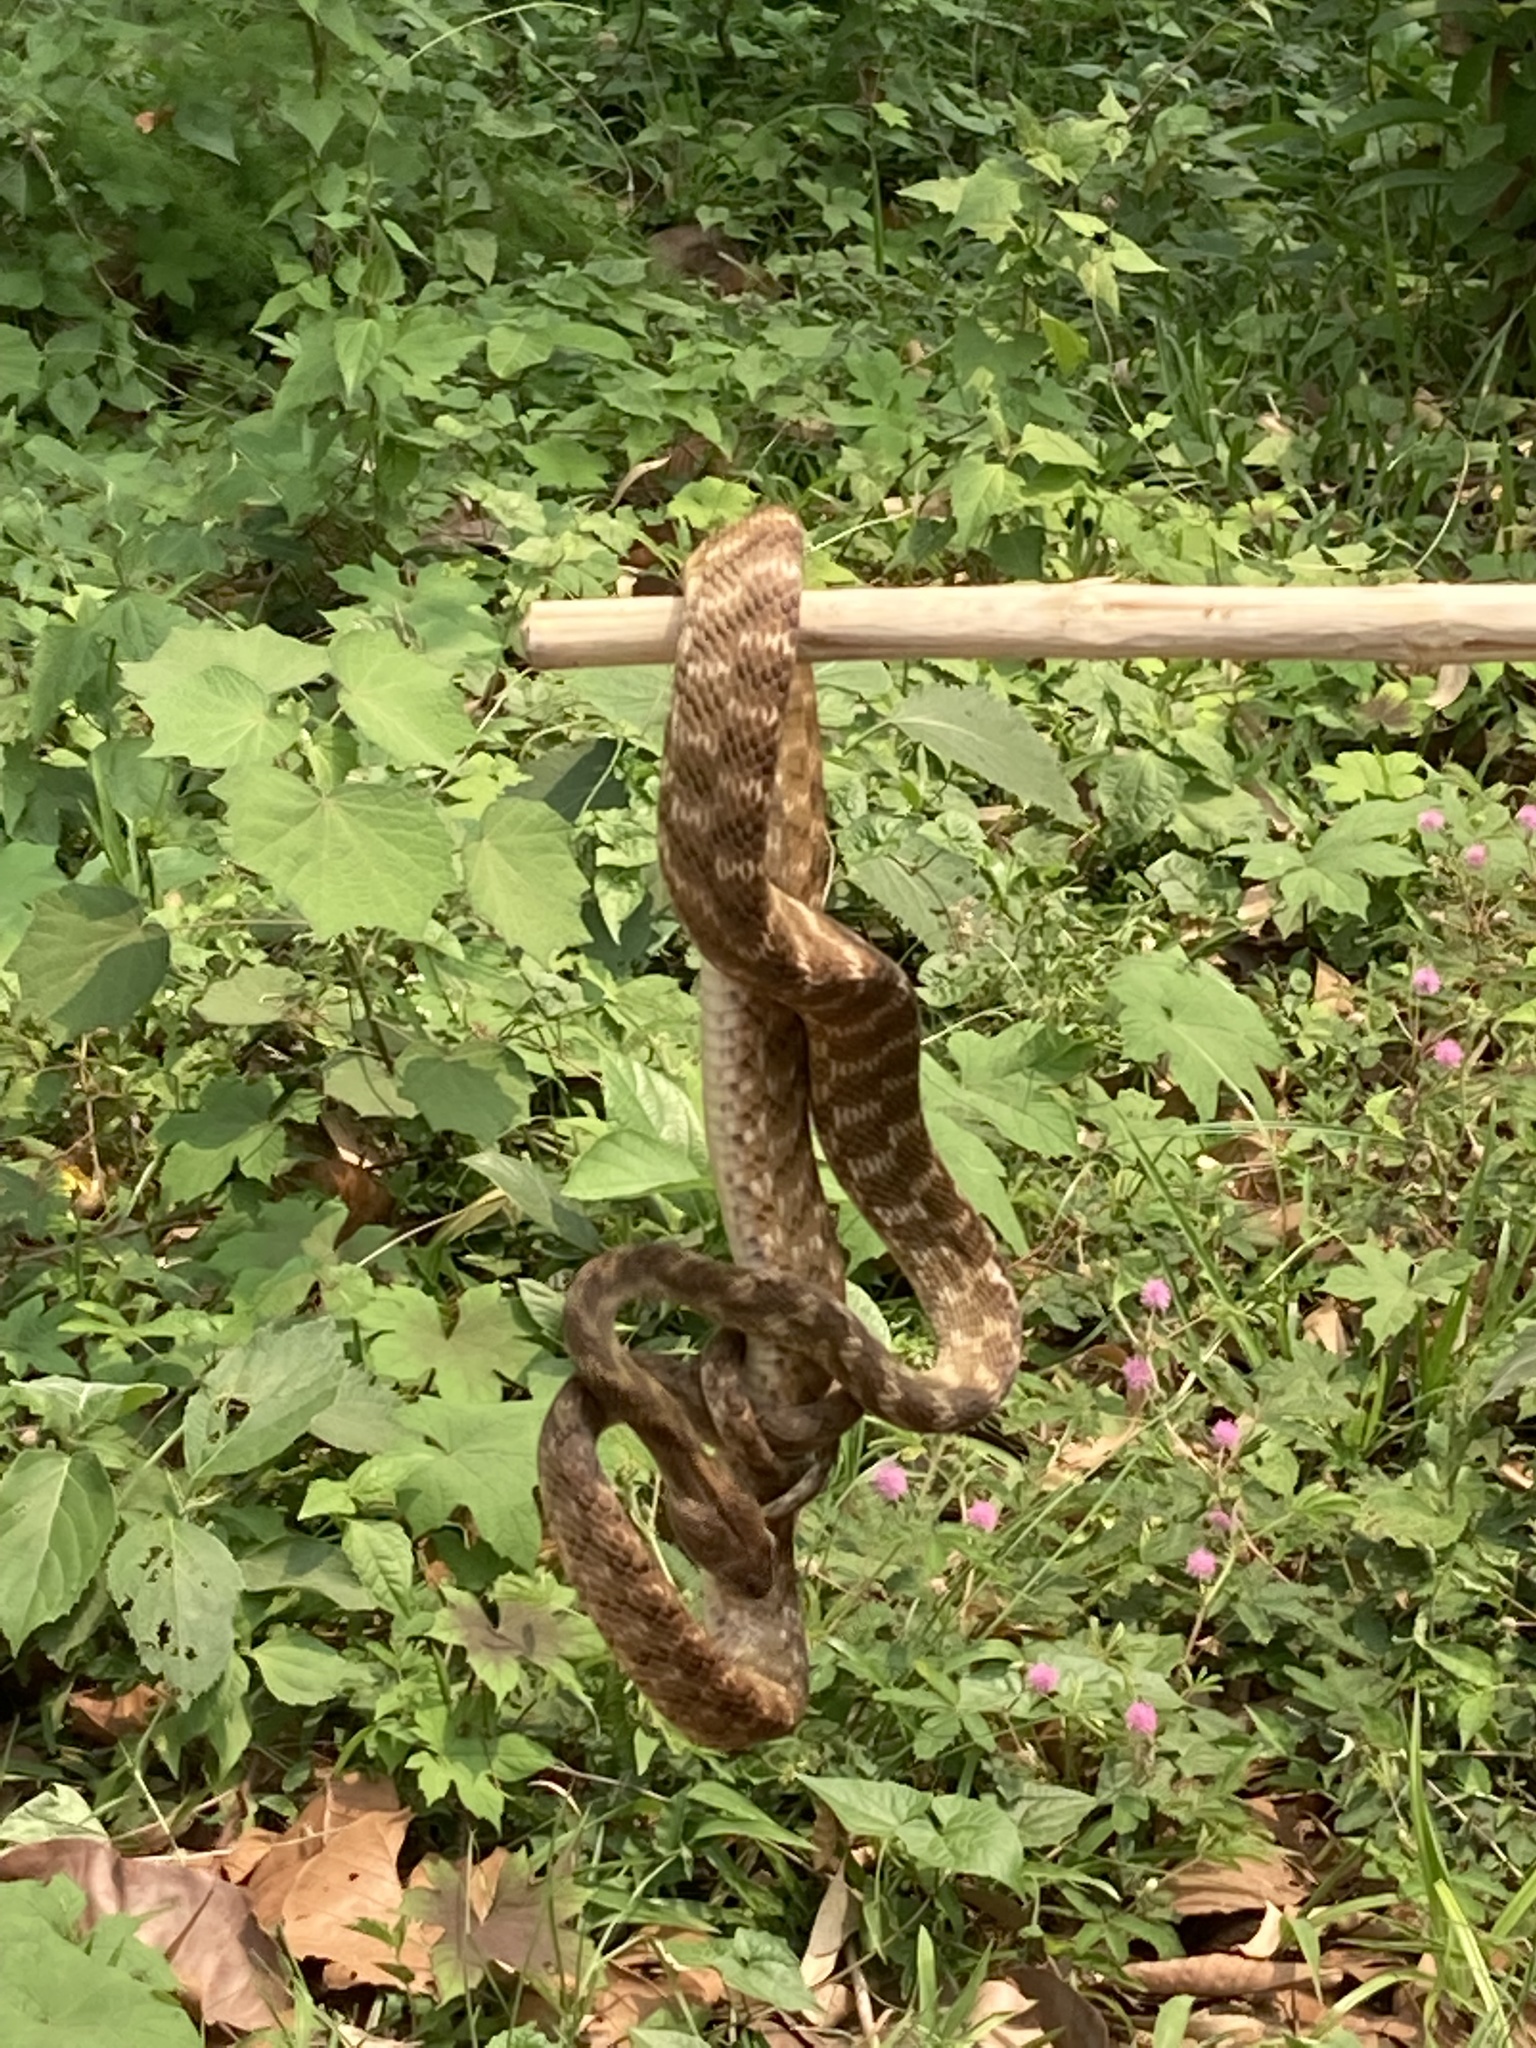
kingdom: Animalia
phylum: Chordata
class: Squamata
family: Colubridae
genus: Boiga
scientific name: Boiga siamensis
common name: Eyed cat snake
